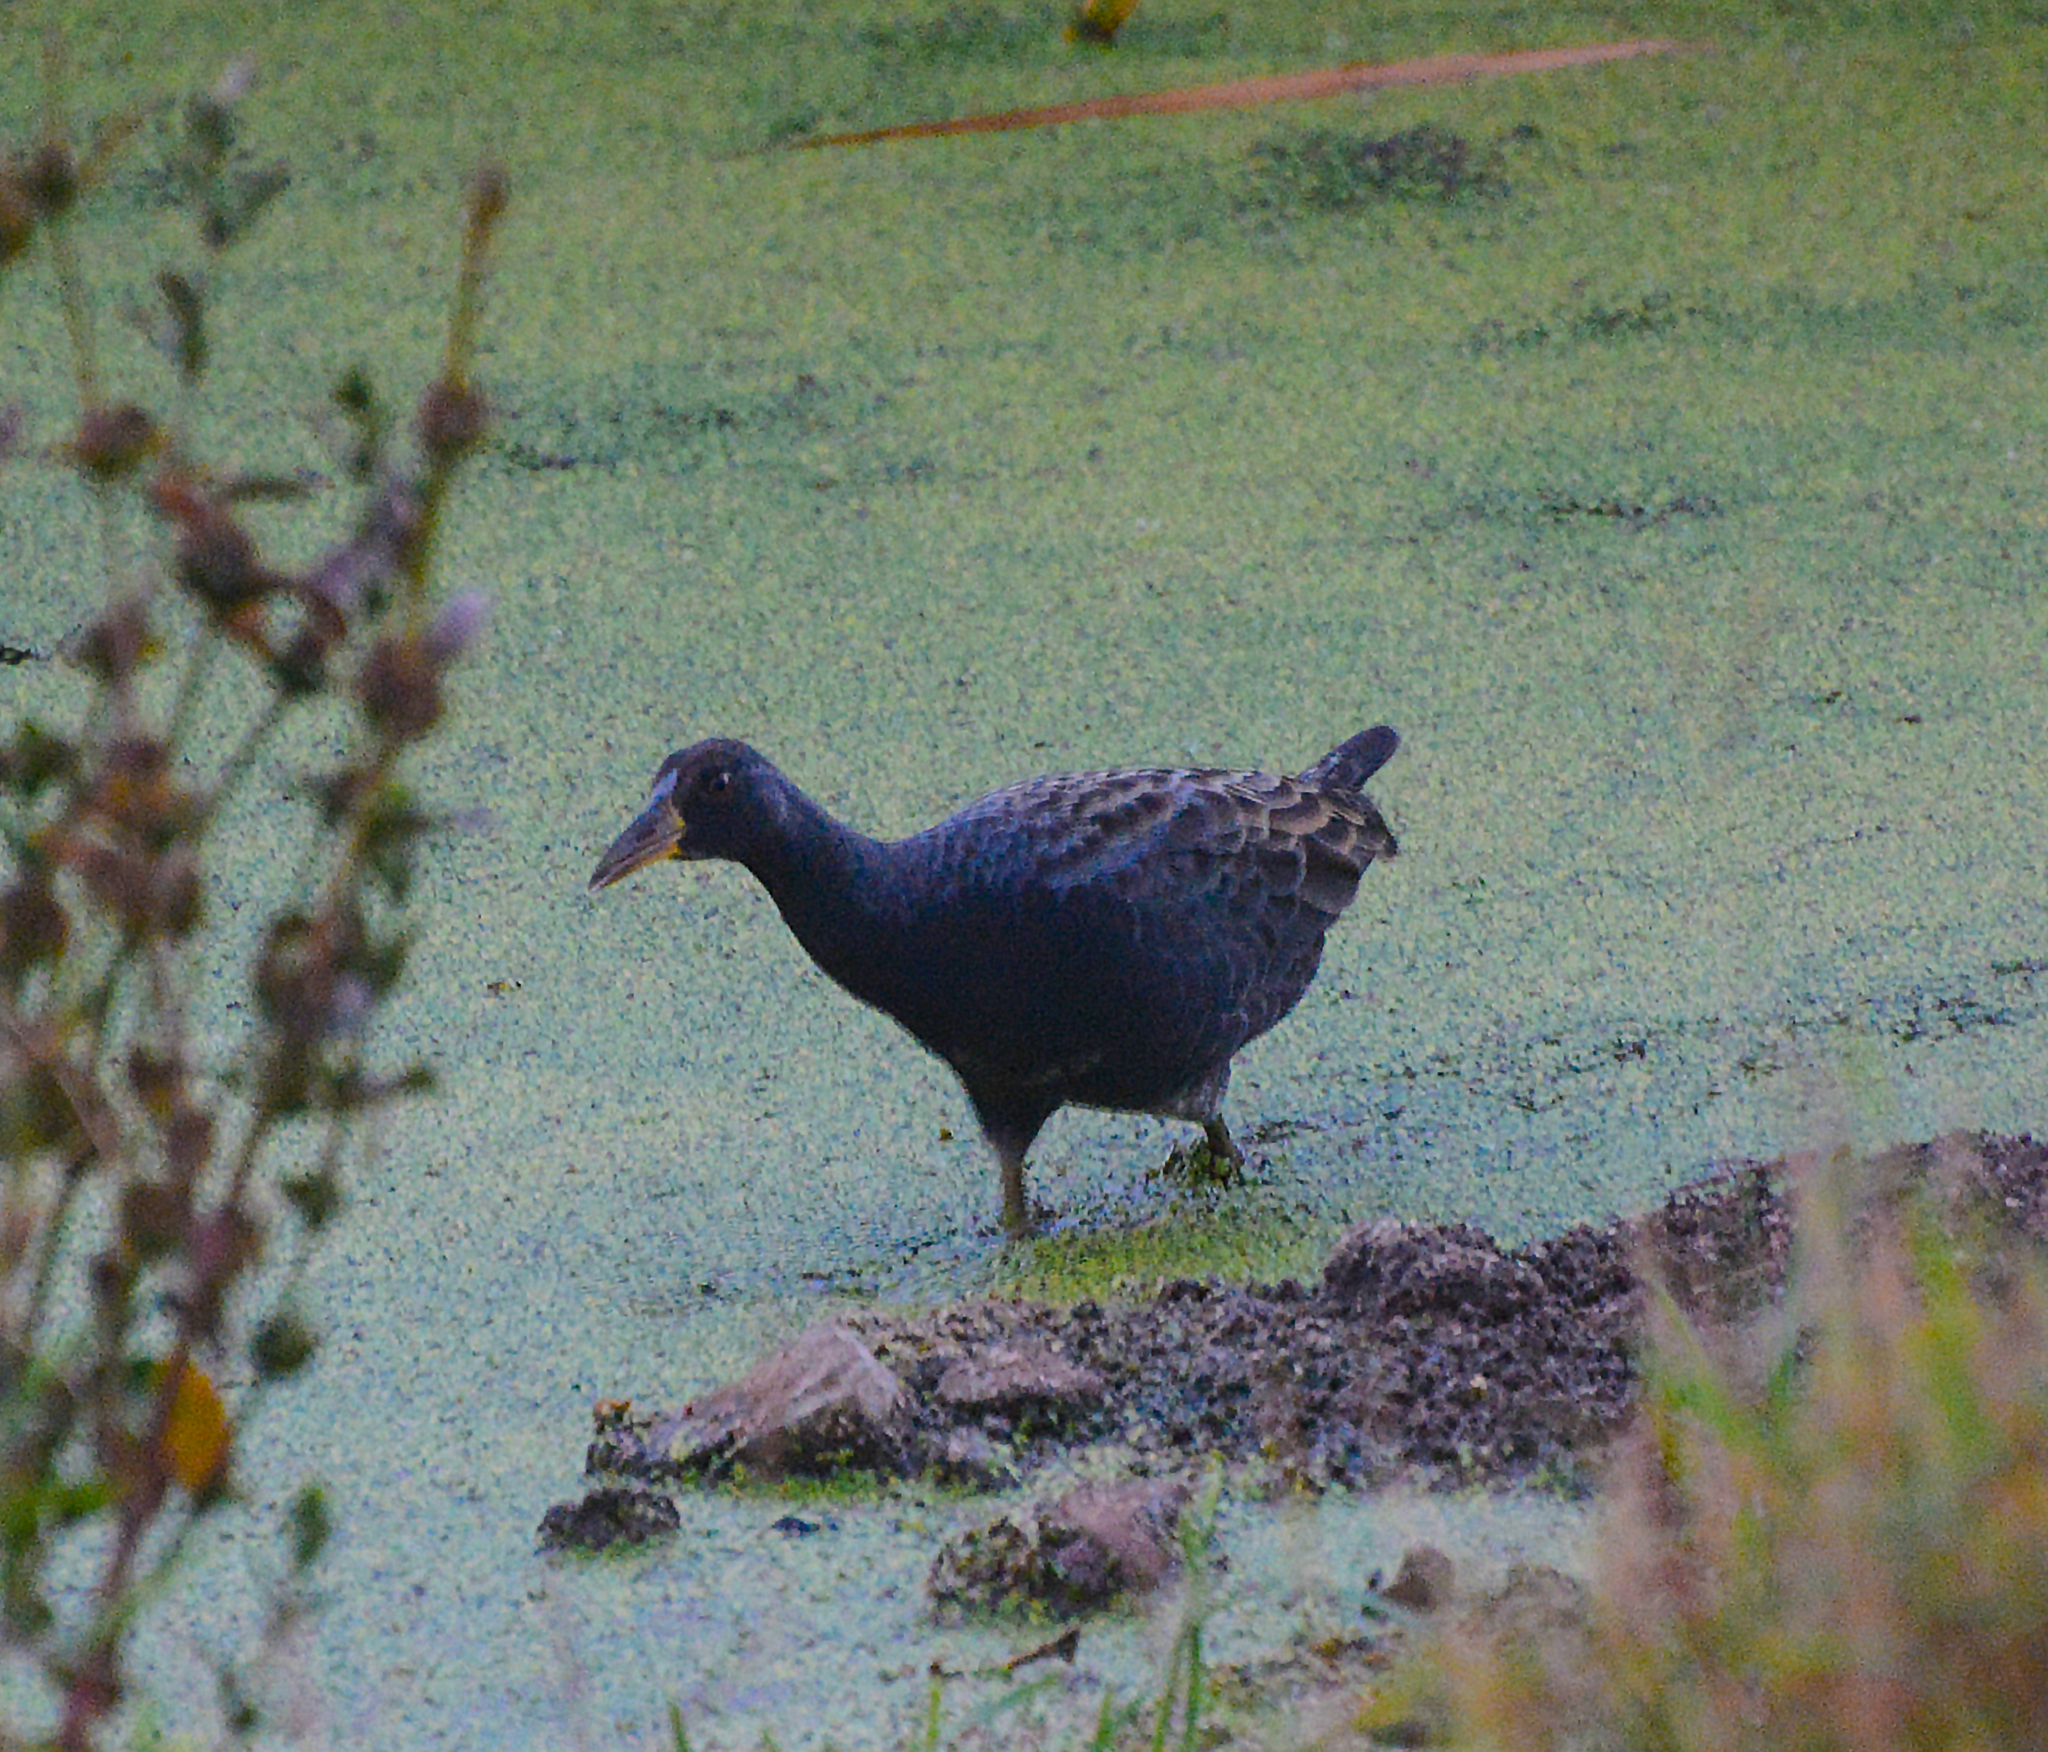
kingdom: Animalia
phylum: Chordata
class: Aves
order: Gruiformes
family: Rallidae
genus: Gallicrex
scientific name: Gallicrex cinerea
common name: Watercock
